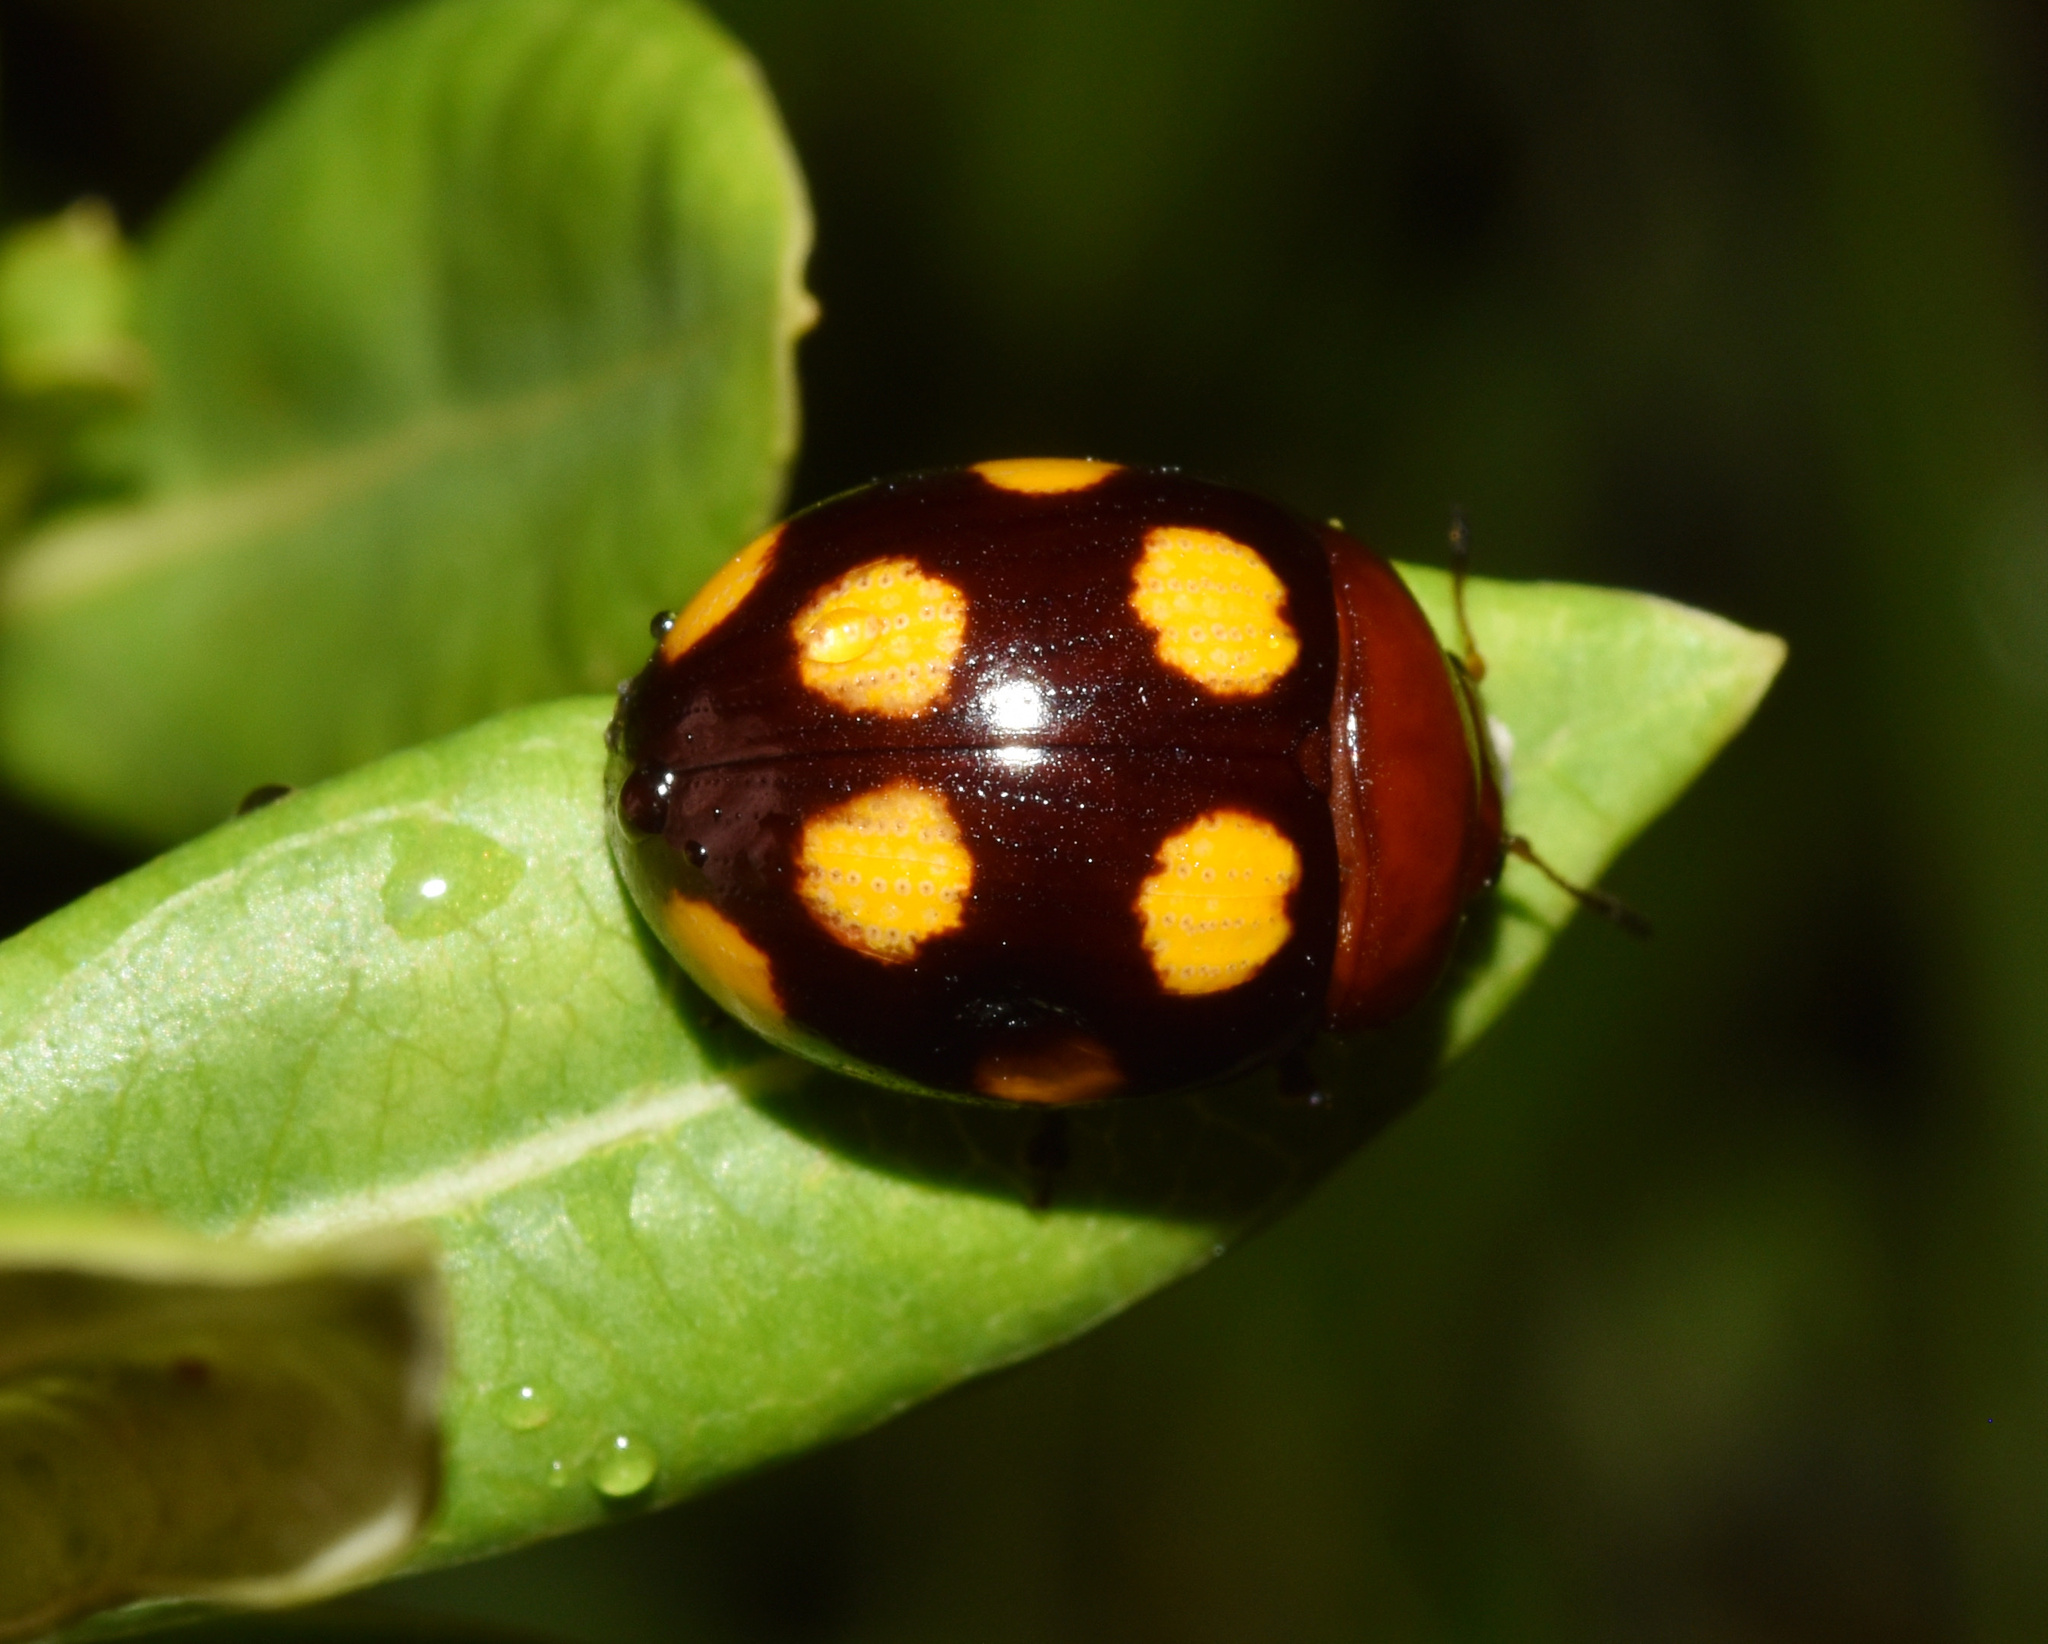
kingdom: Animalia
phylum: Arthropoda
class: Insecta
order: Coleoptera
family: Chrysomelidae
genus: Chrysolina
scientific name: Chrysolina
